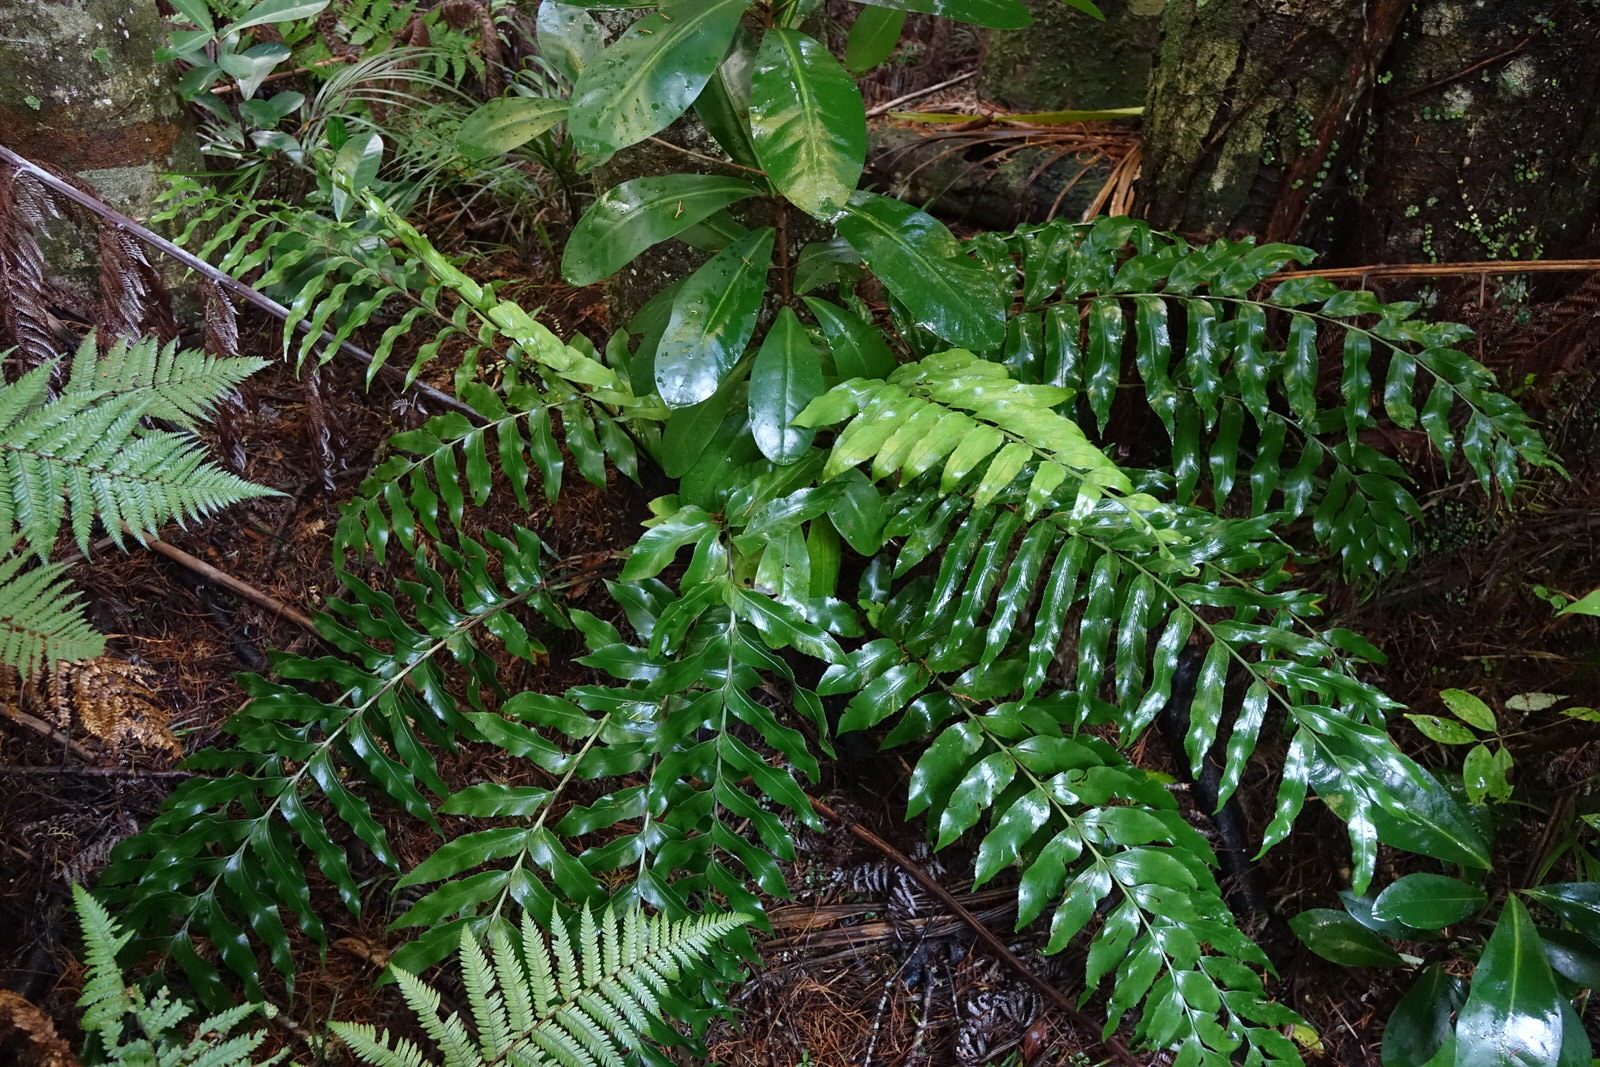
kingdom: Plantae
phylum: Tracheophyta
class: Polypodiopsida
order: Polypodiales
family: Aspleniaceae
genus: Asplenium
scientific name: Asplenium oblongifolium
